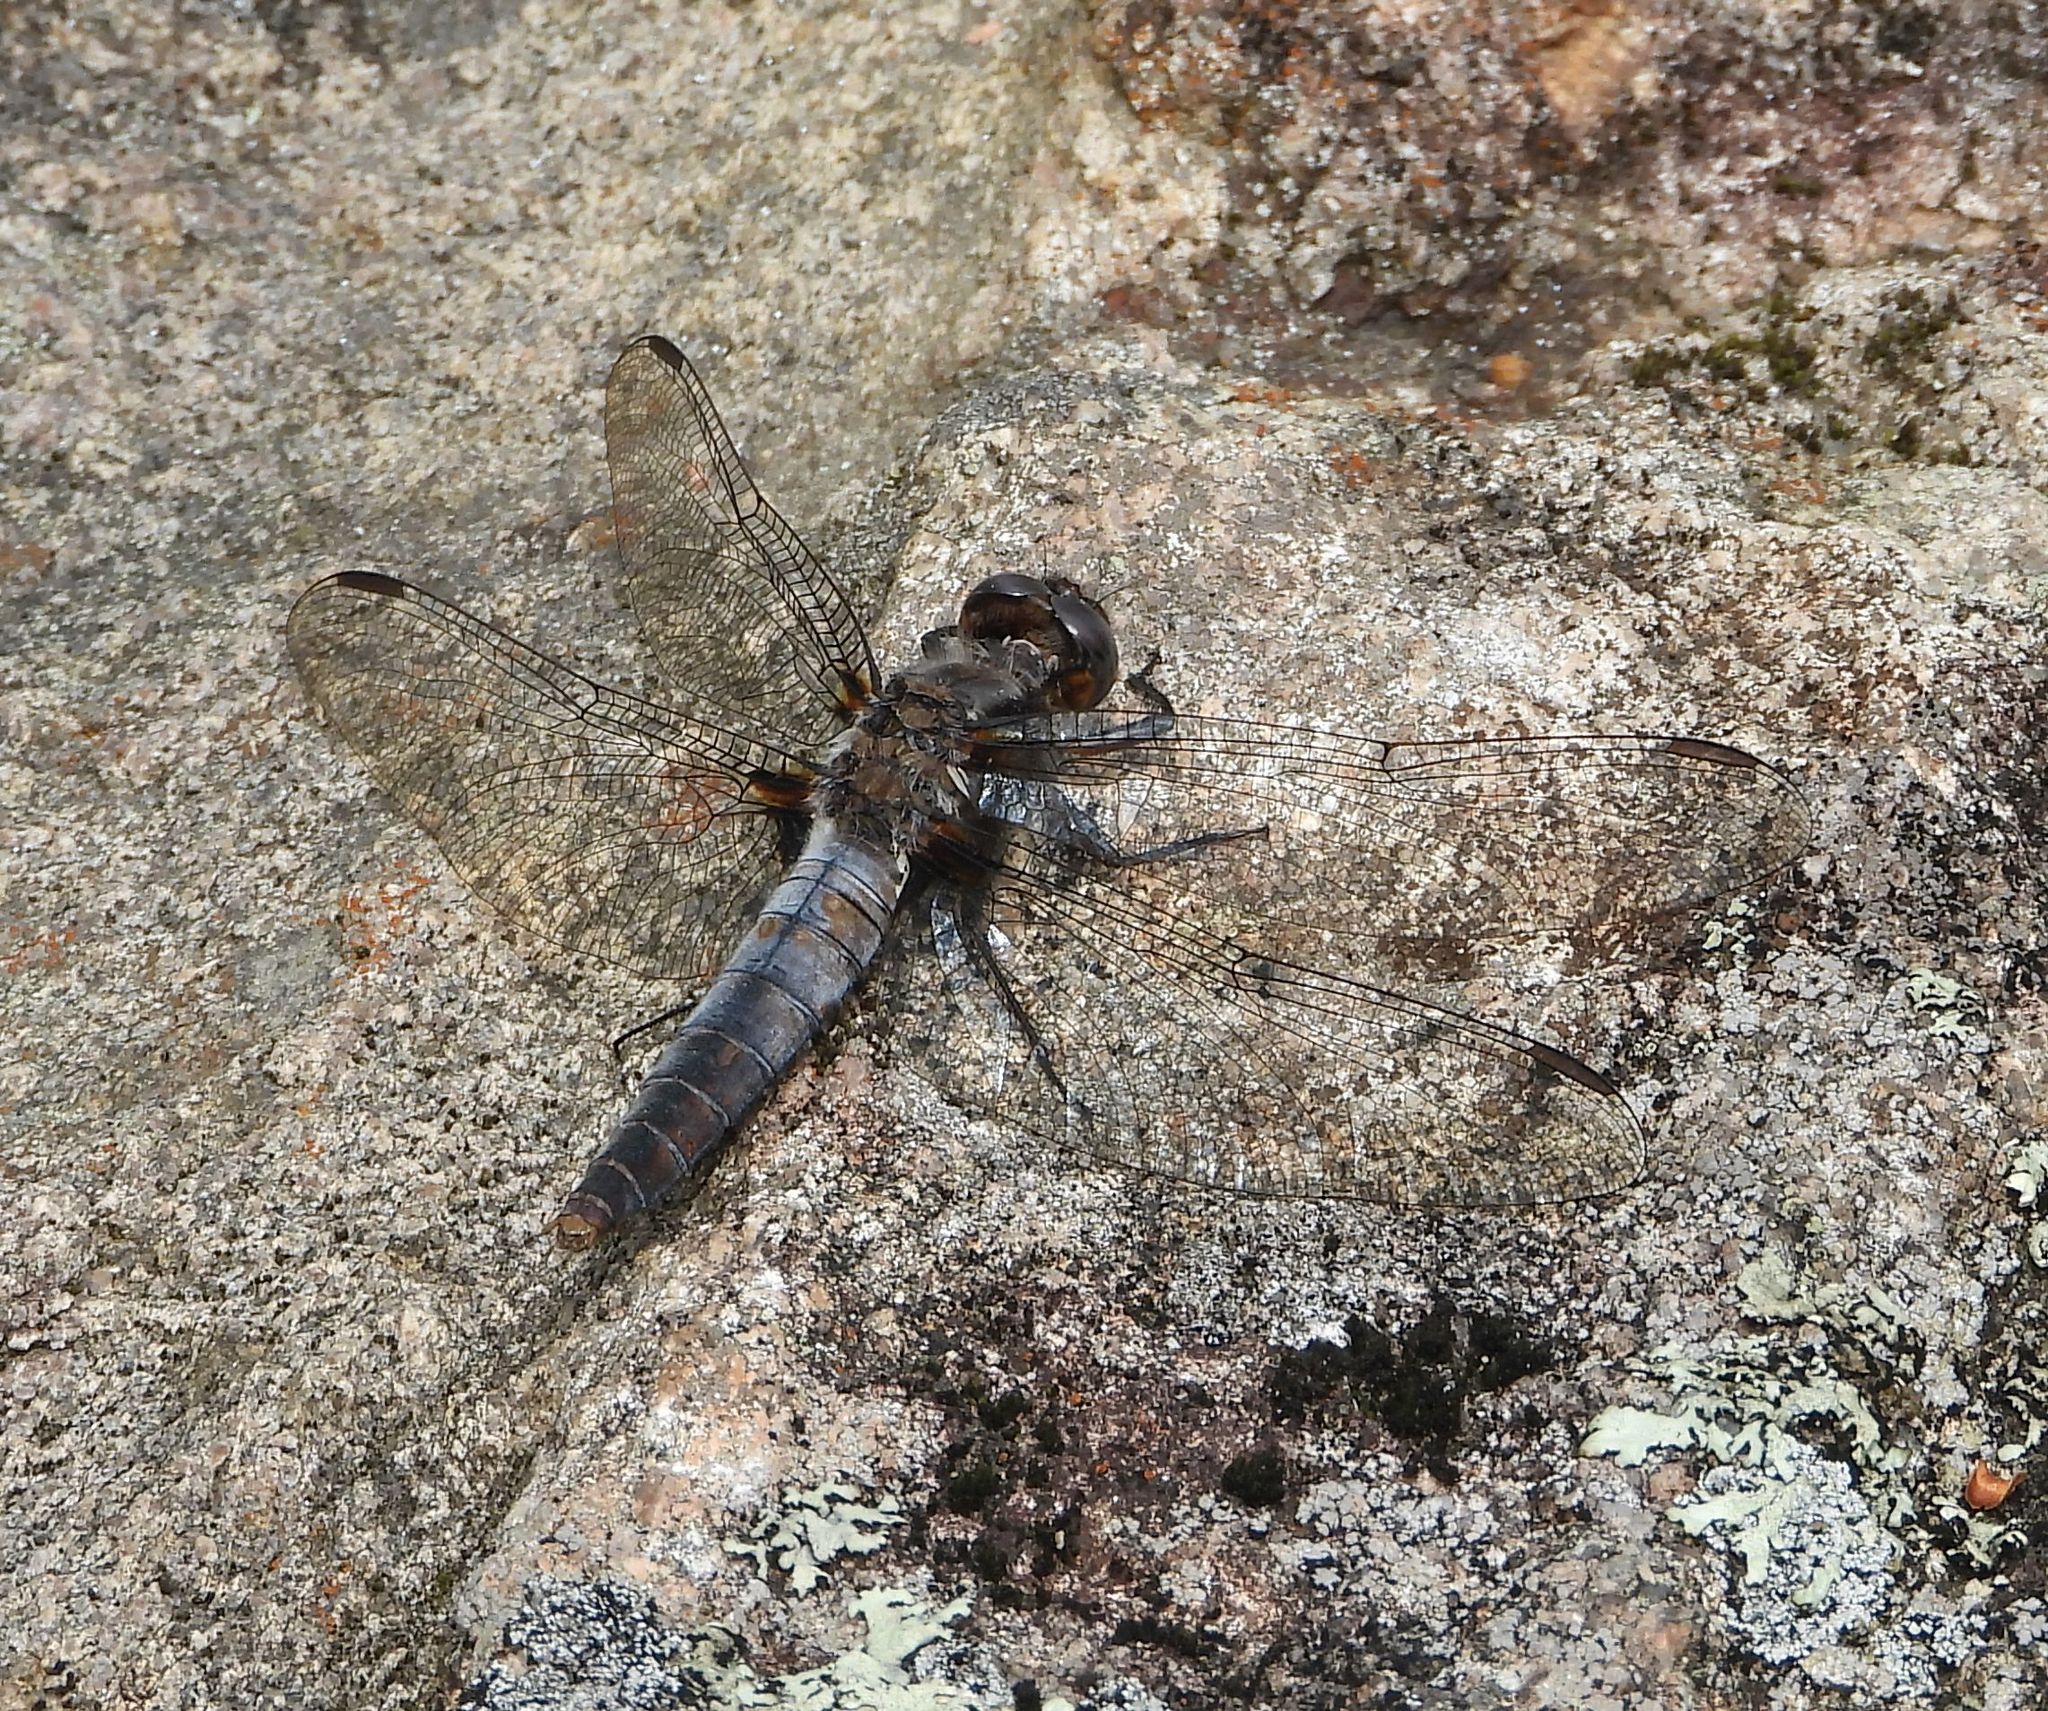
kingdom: Animalia
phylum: Arthropoda
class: Insecta
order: Odonata
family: Libellulidae
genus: Ladona
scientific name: Ladona julia
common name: Chalk-fronted corporal
